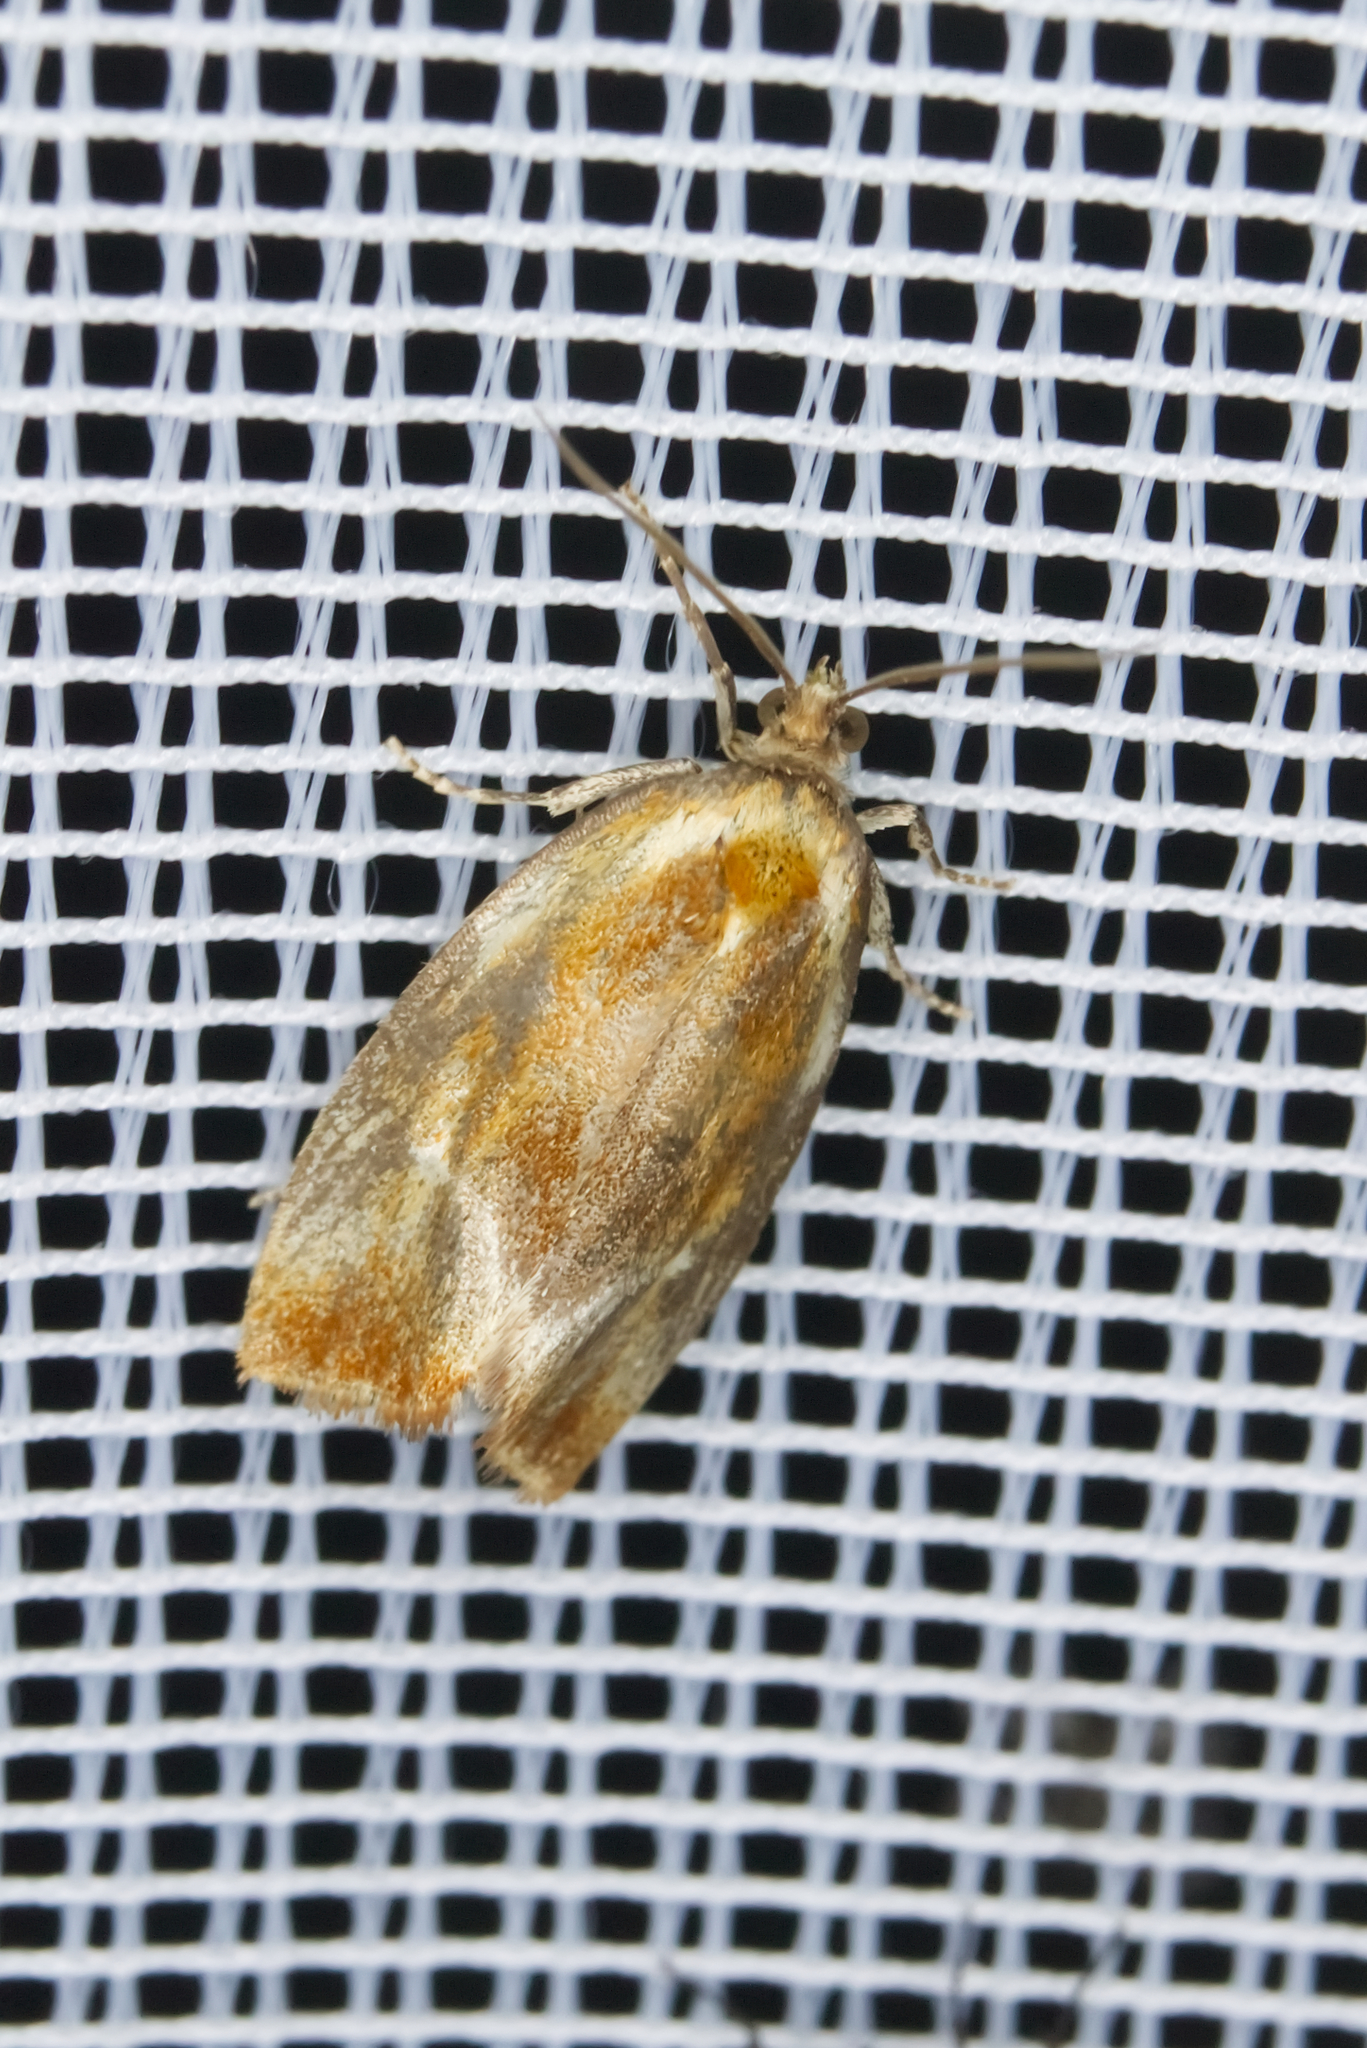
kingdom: Animalia
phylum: Arthropoda
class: Insecta
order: Lepidoptera
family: Tortricidae
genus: Eulia
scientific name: Eulia ministrana
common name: Brassy twist
